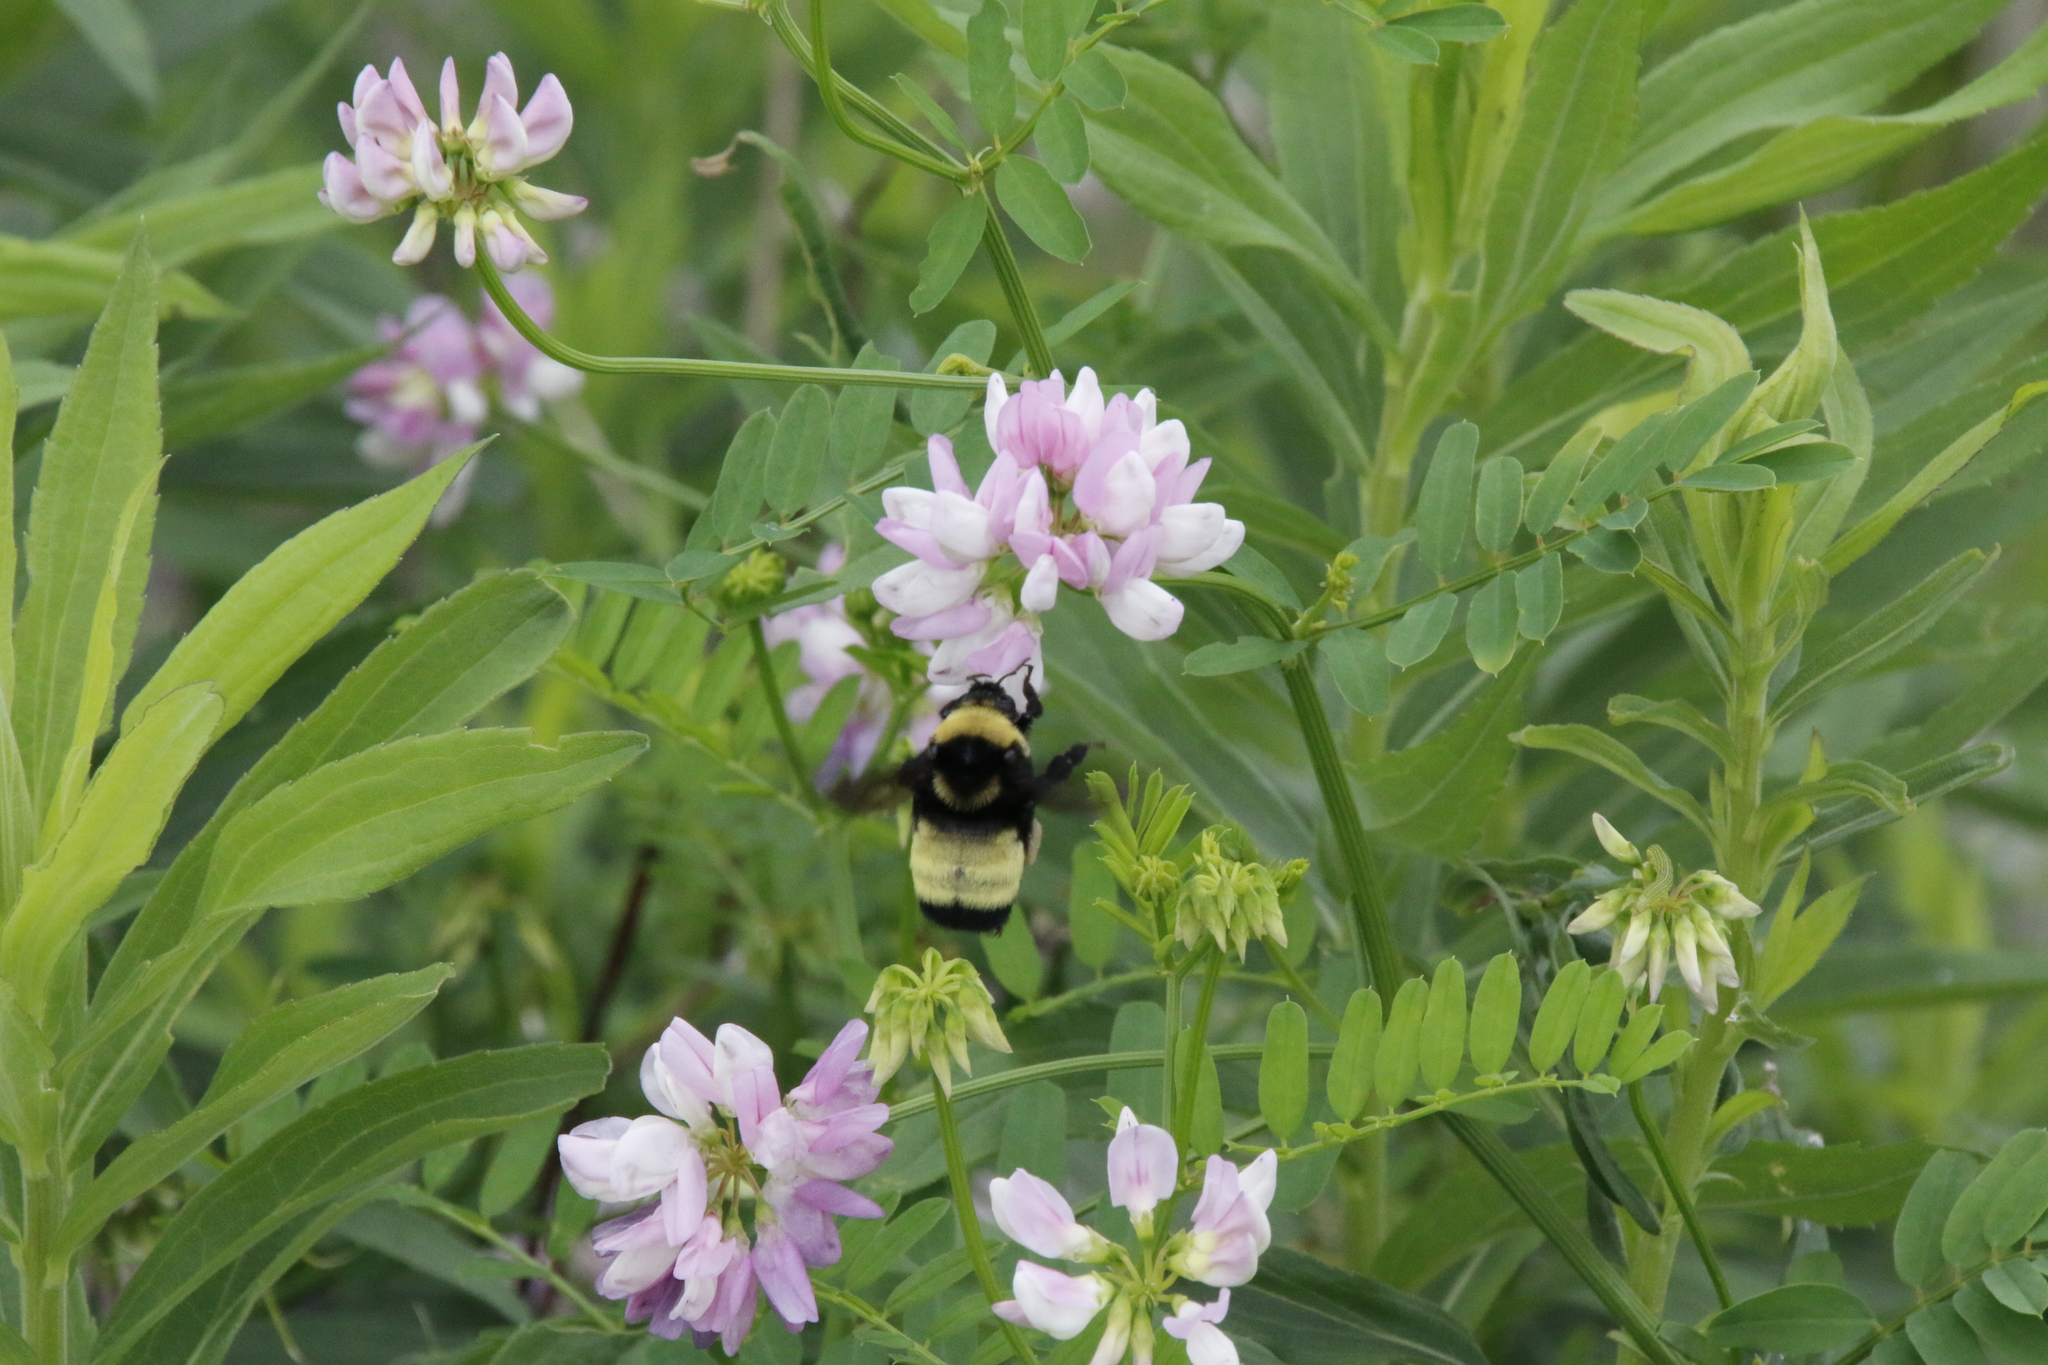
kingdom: Animalia
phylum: Arthropoda
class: Insecta
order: Hymenoptera
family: Apidae
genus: Bombus
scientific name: Bombus auricomus
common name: Black and gold bumble bee
